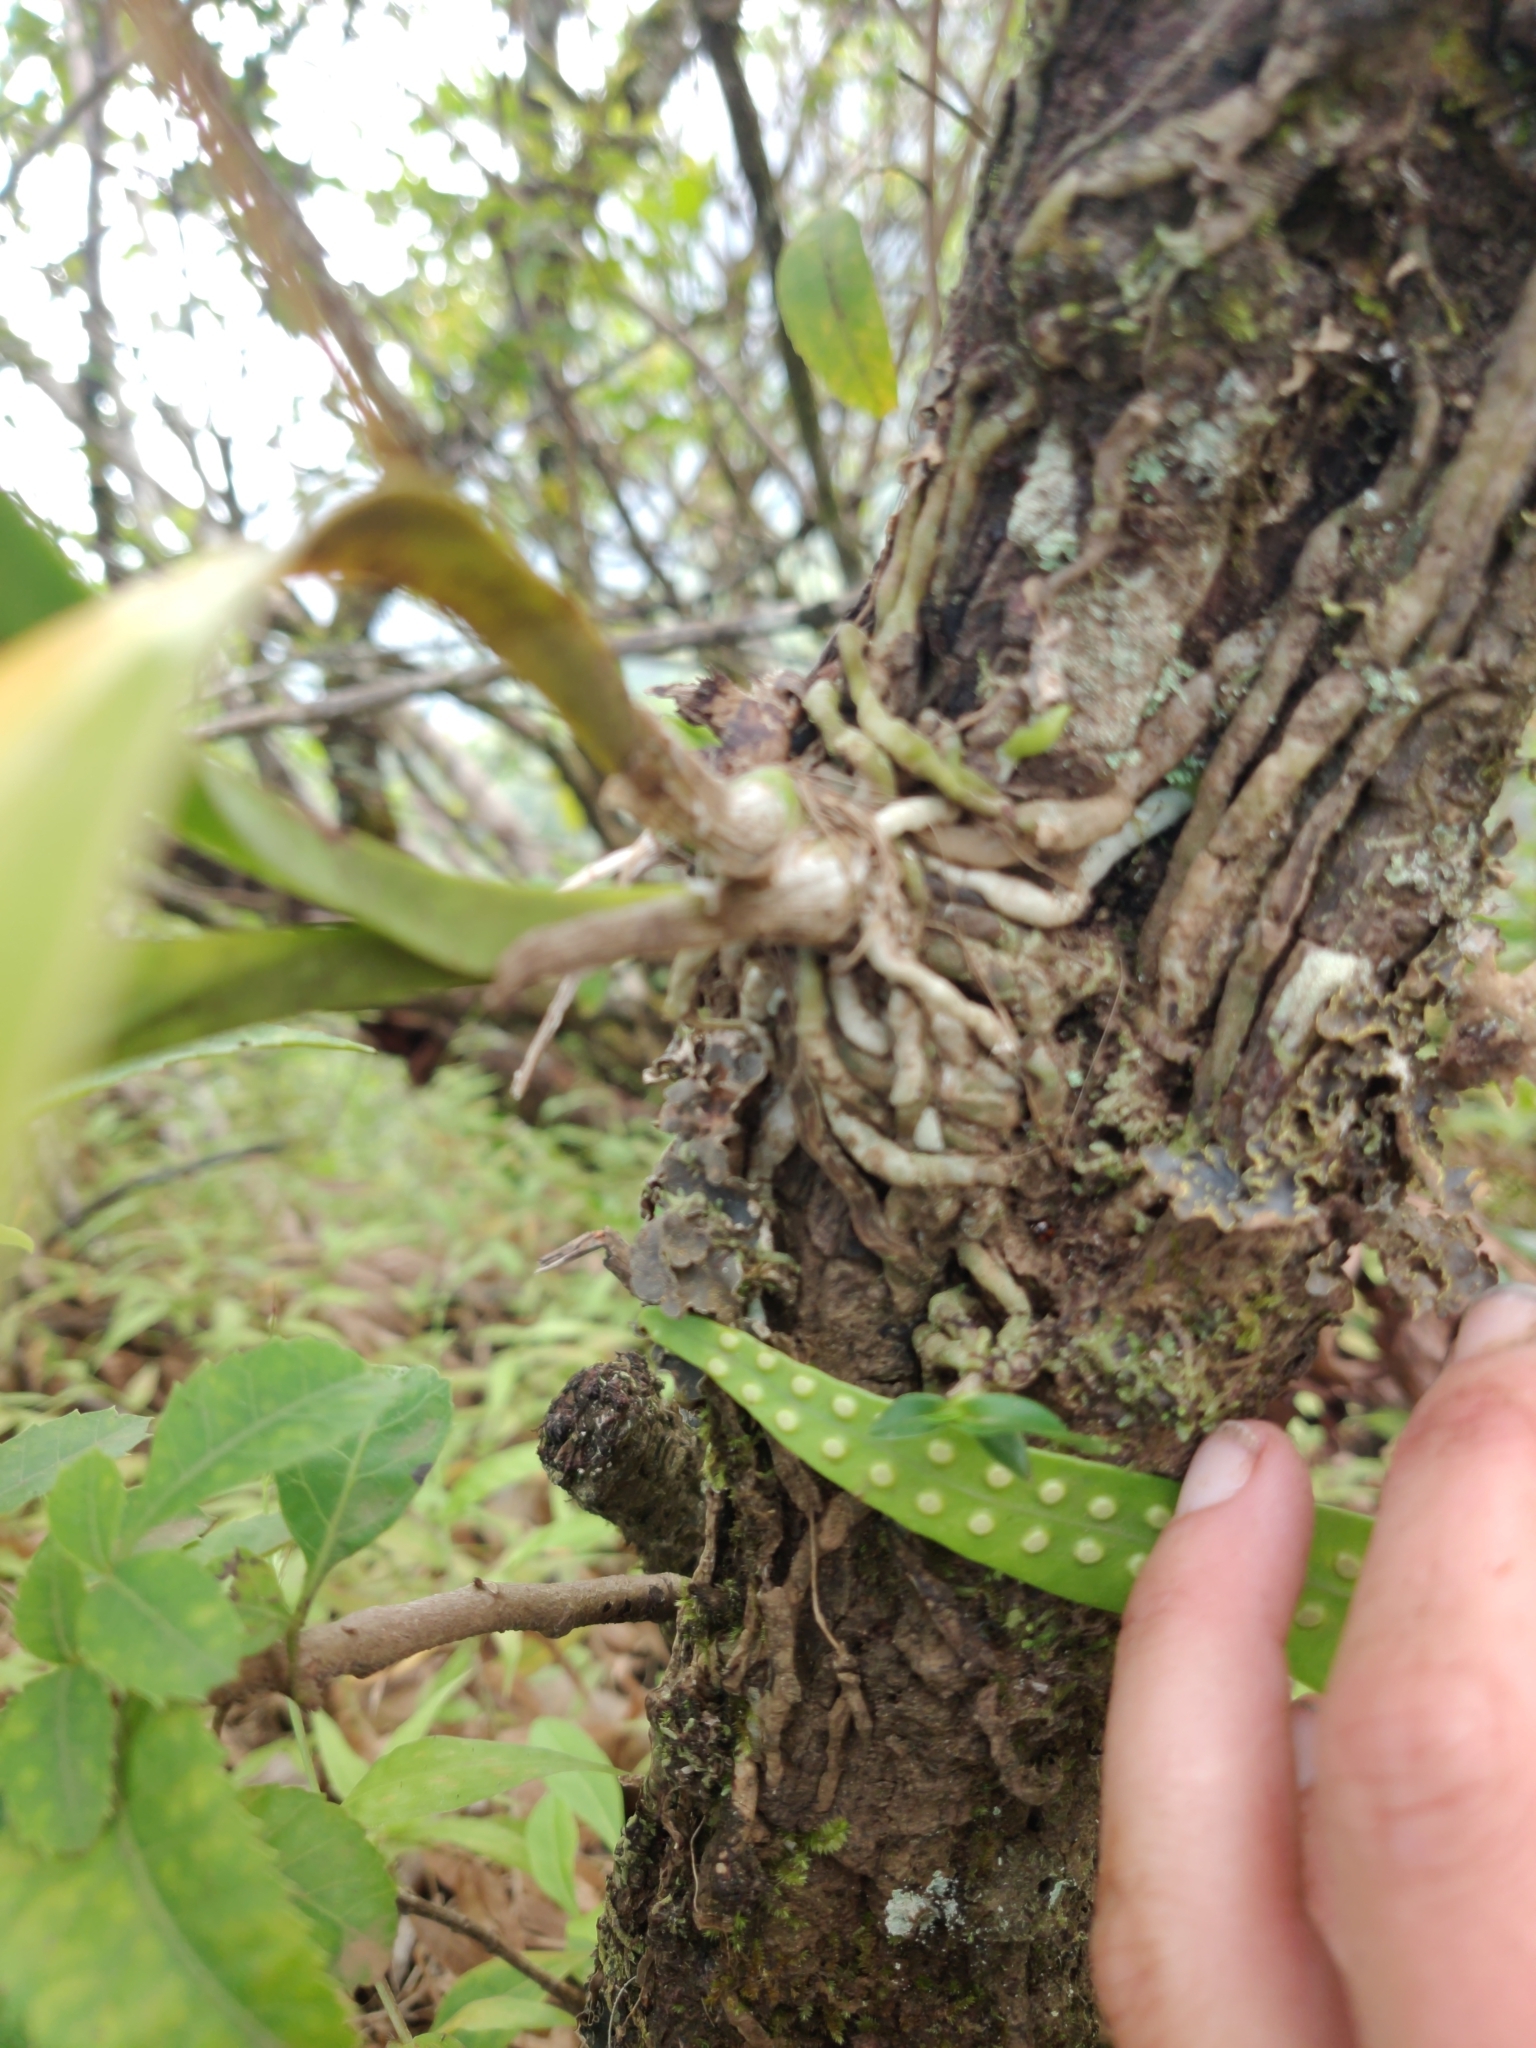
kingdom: Plantae
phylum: Tracheophyta
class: Liliopsida
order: Asparagales
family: Orchidaceae
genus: Polystachya
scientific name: Polystachya concreta
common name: Greater yellowspike orchid
